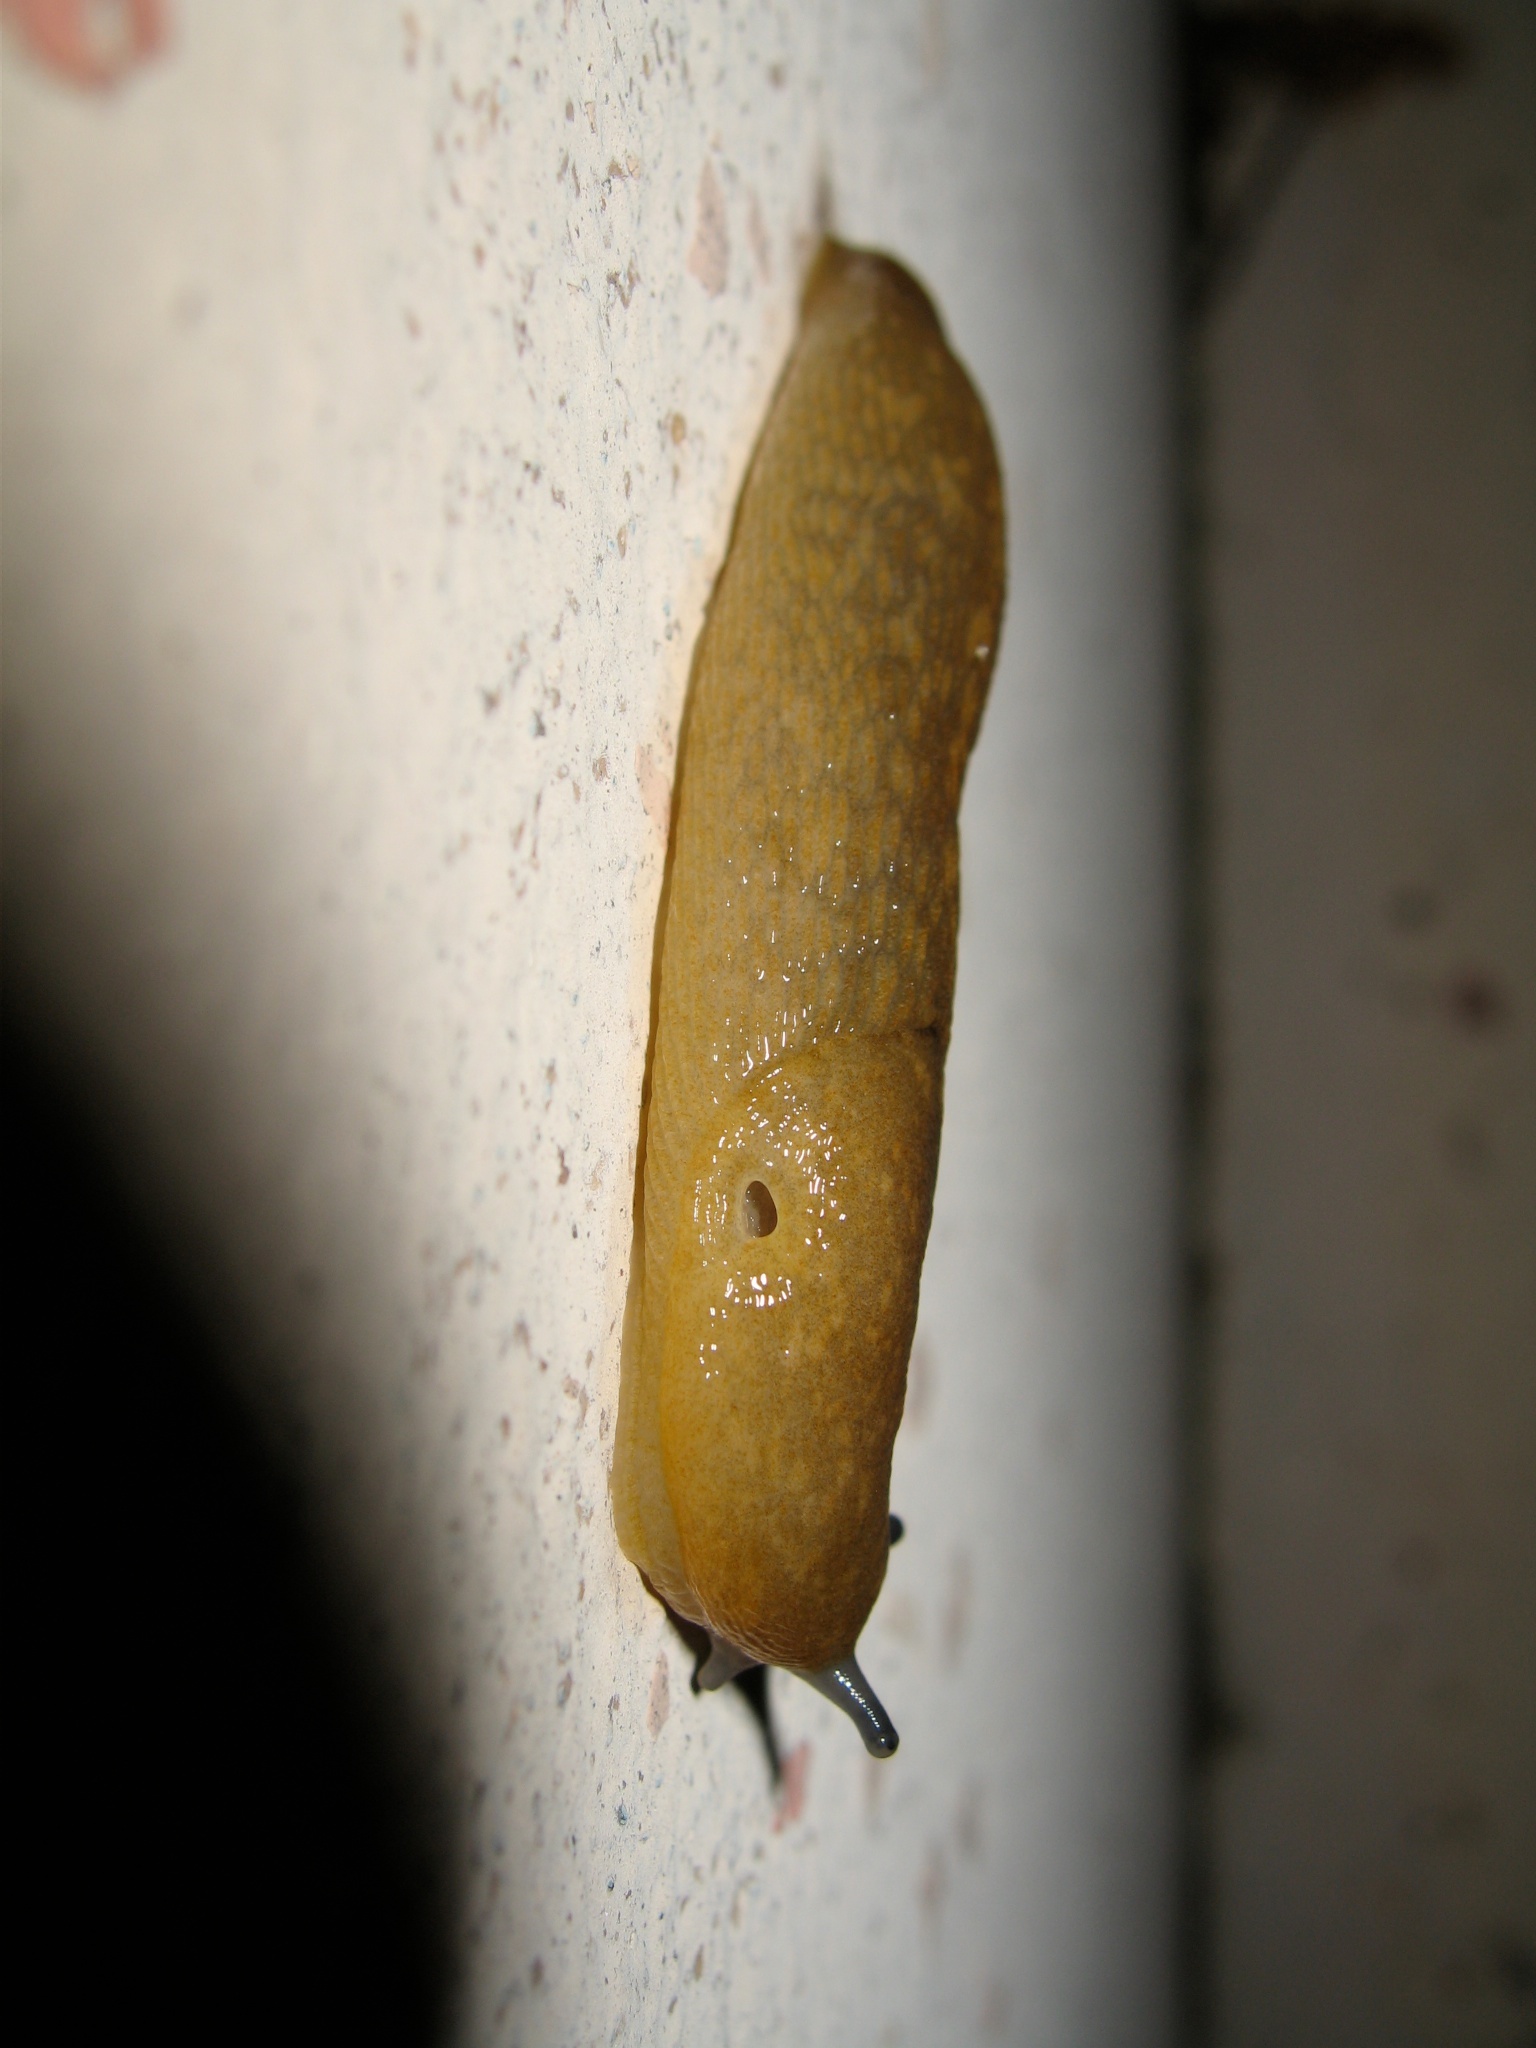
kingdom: Animalia
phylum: Mollusca
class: Gastropoda
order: Stylommatophora
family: Limacidae
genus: Limacus
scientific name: Limacus flavus
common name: Yellow gardenslug
